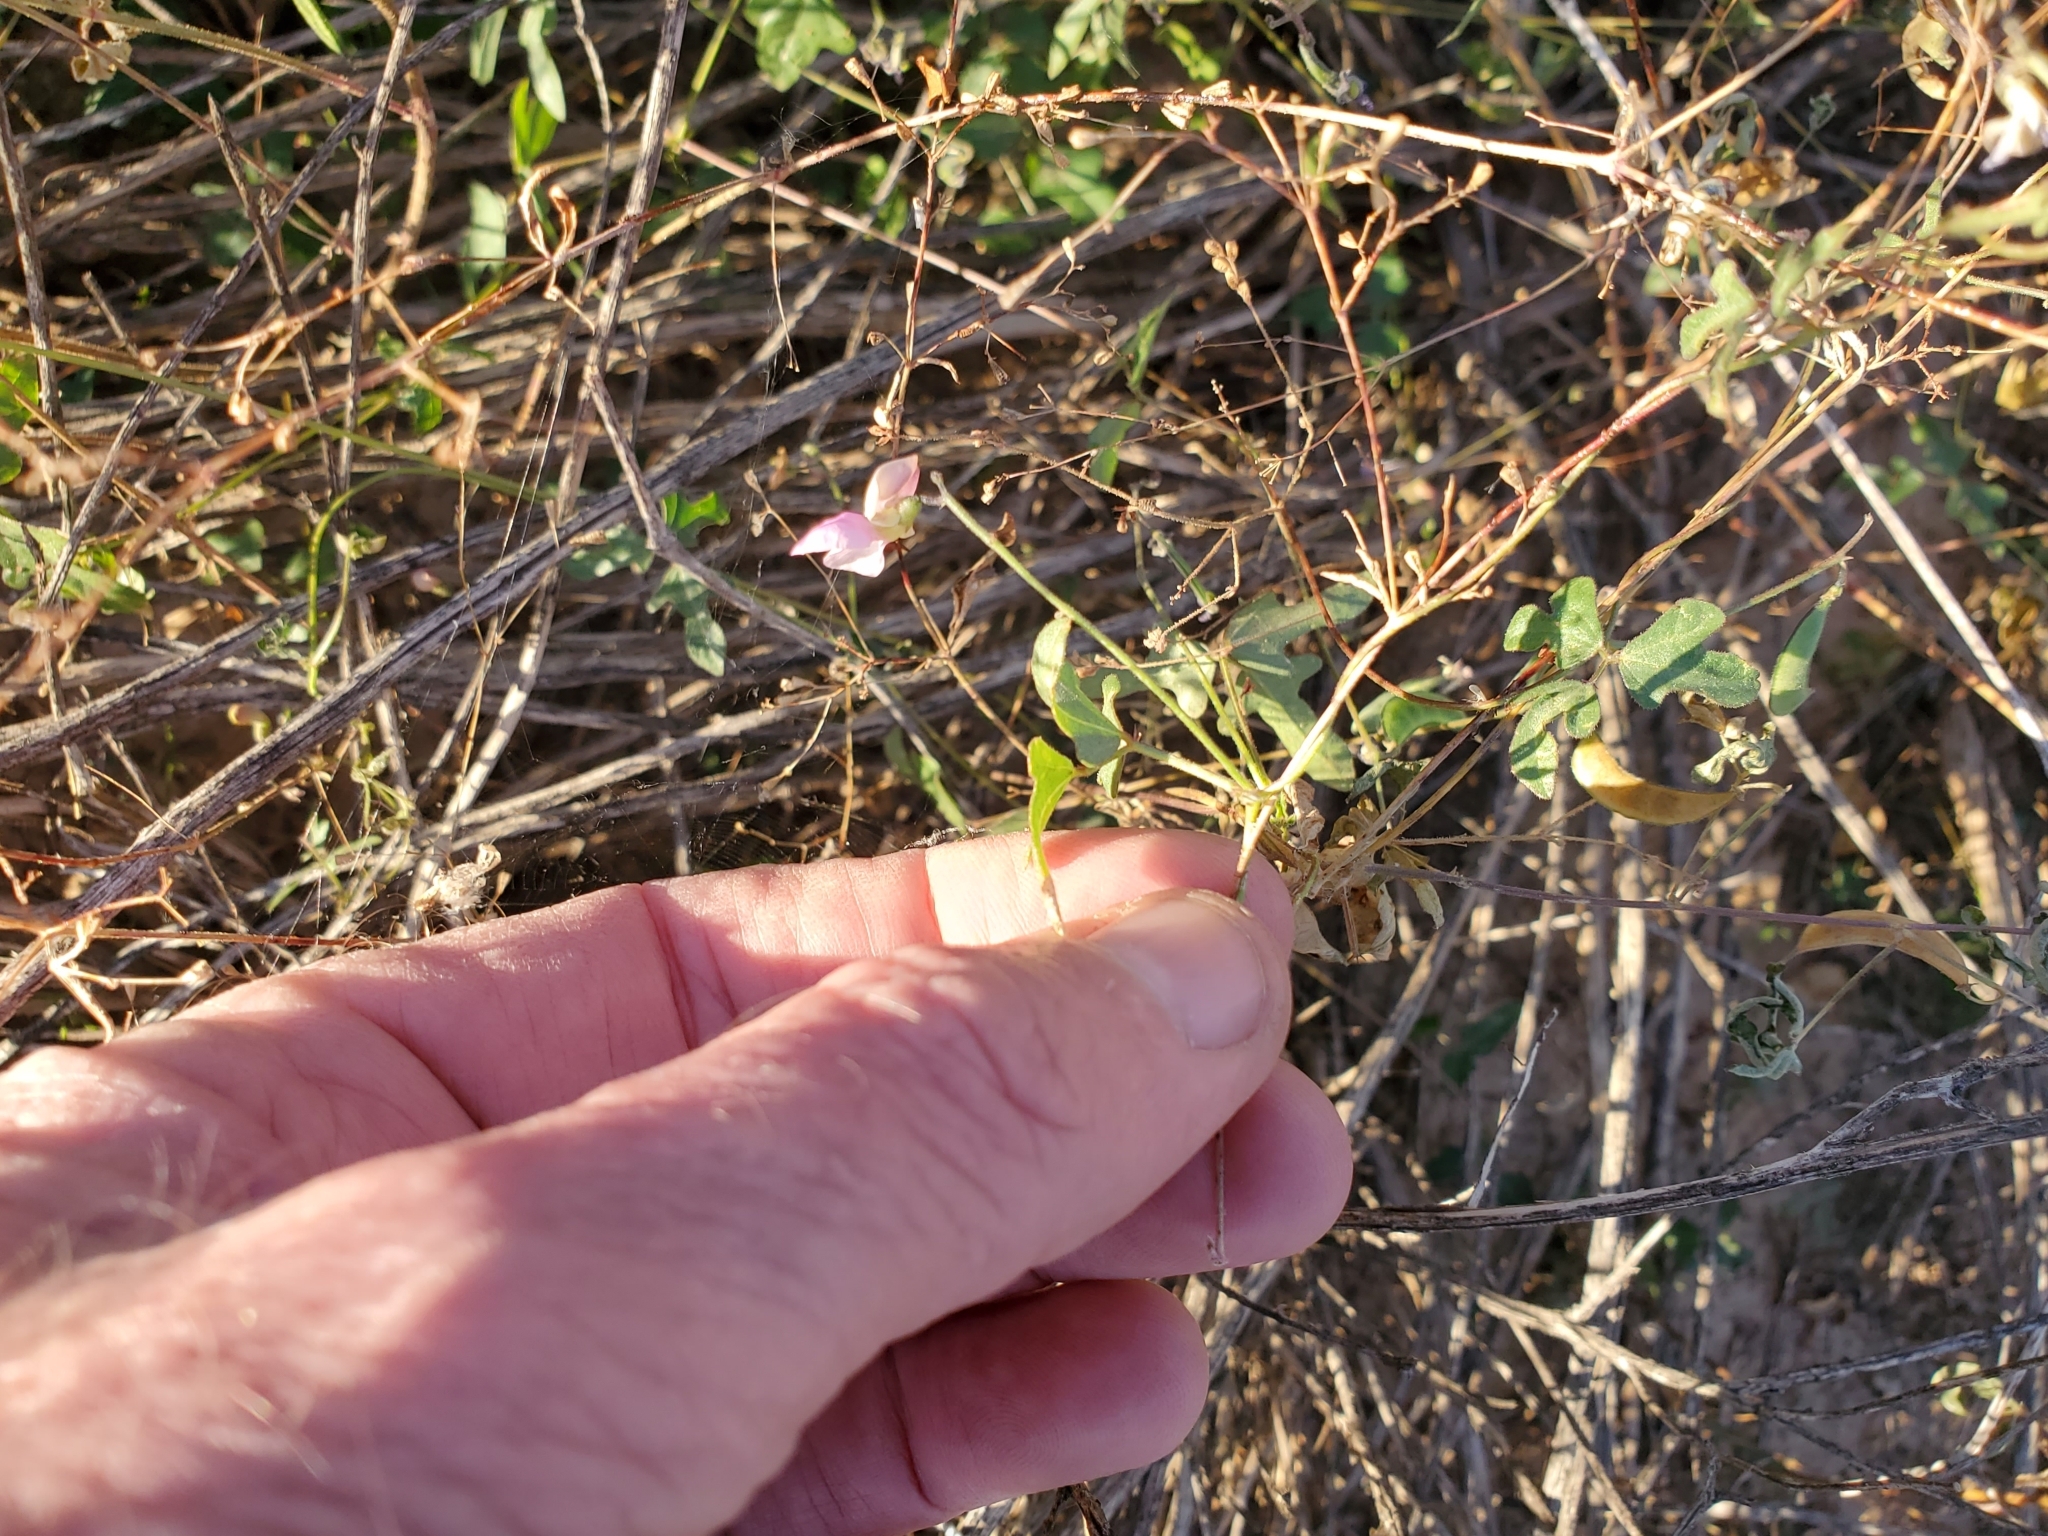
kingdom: Plantae
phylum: Tracheophyta
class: Magnoliopsida
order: Fabales
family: Fabaceae
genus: Phaseolus
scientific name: Phaseolus filiformis
